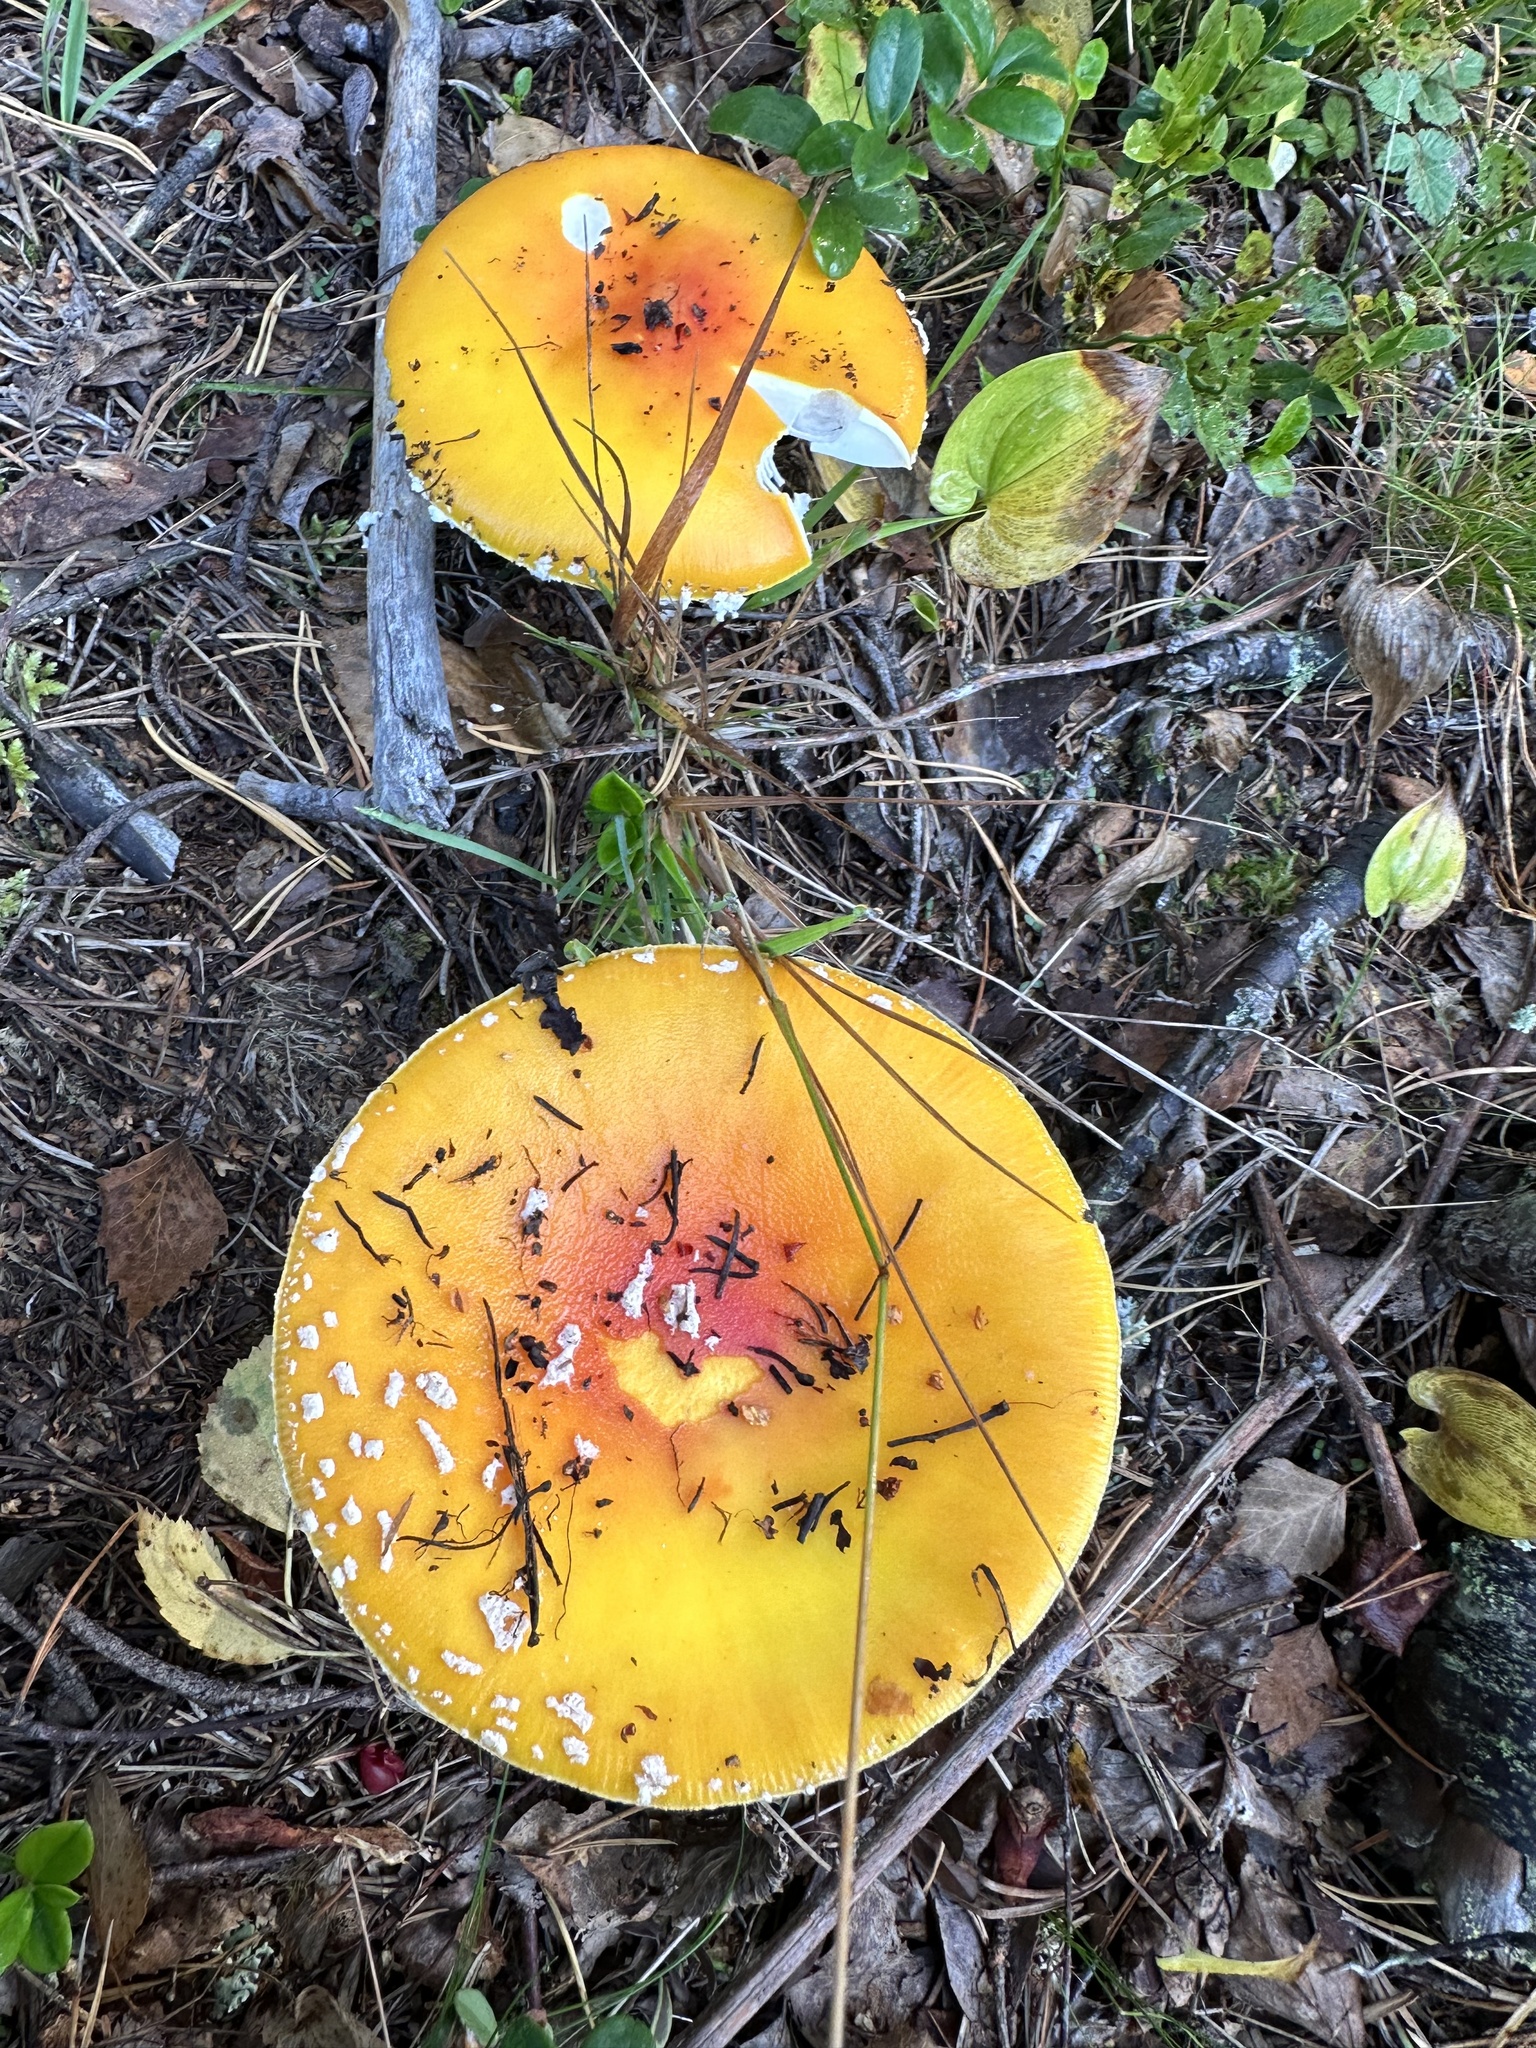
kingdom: Fungi
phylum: Basidiomycota
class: Agaricomycetes
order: Agaricales
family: Amanitaceae
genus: Amanita
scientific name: Amanita muscaria
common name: Fly agaric
